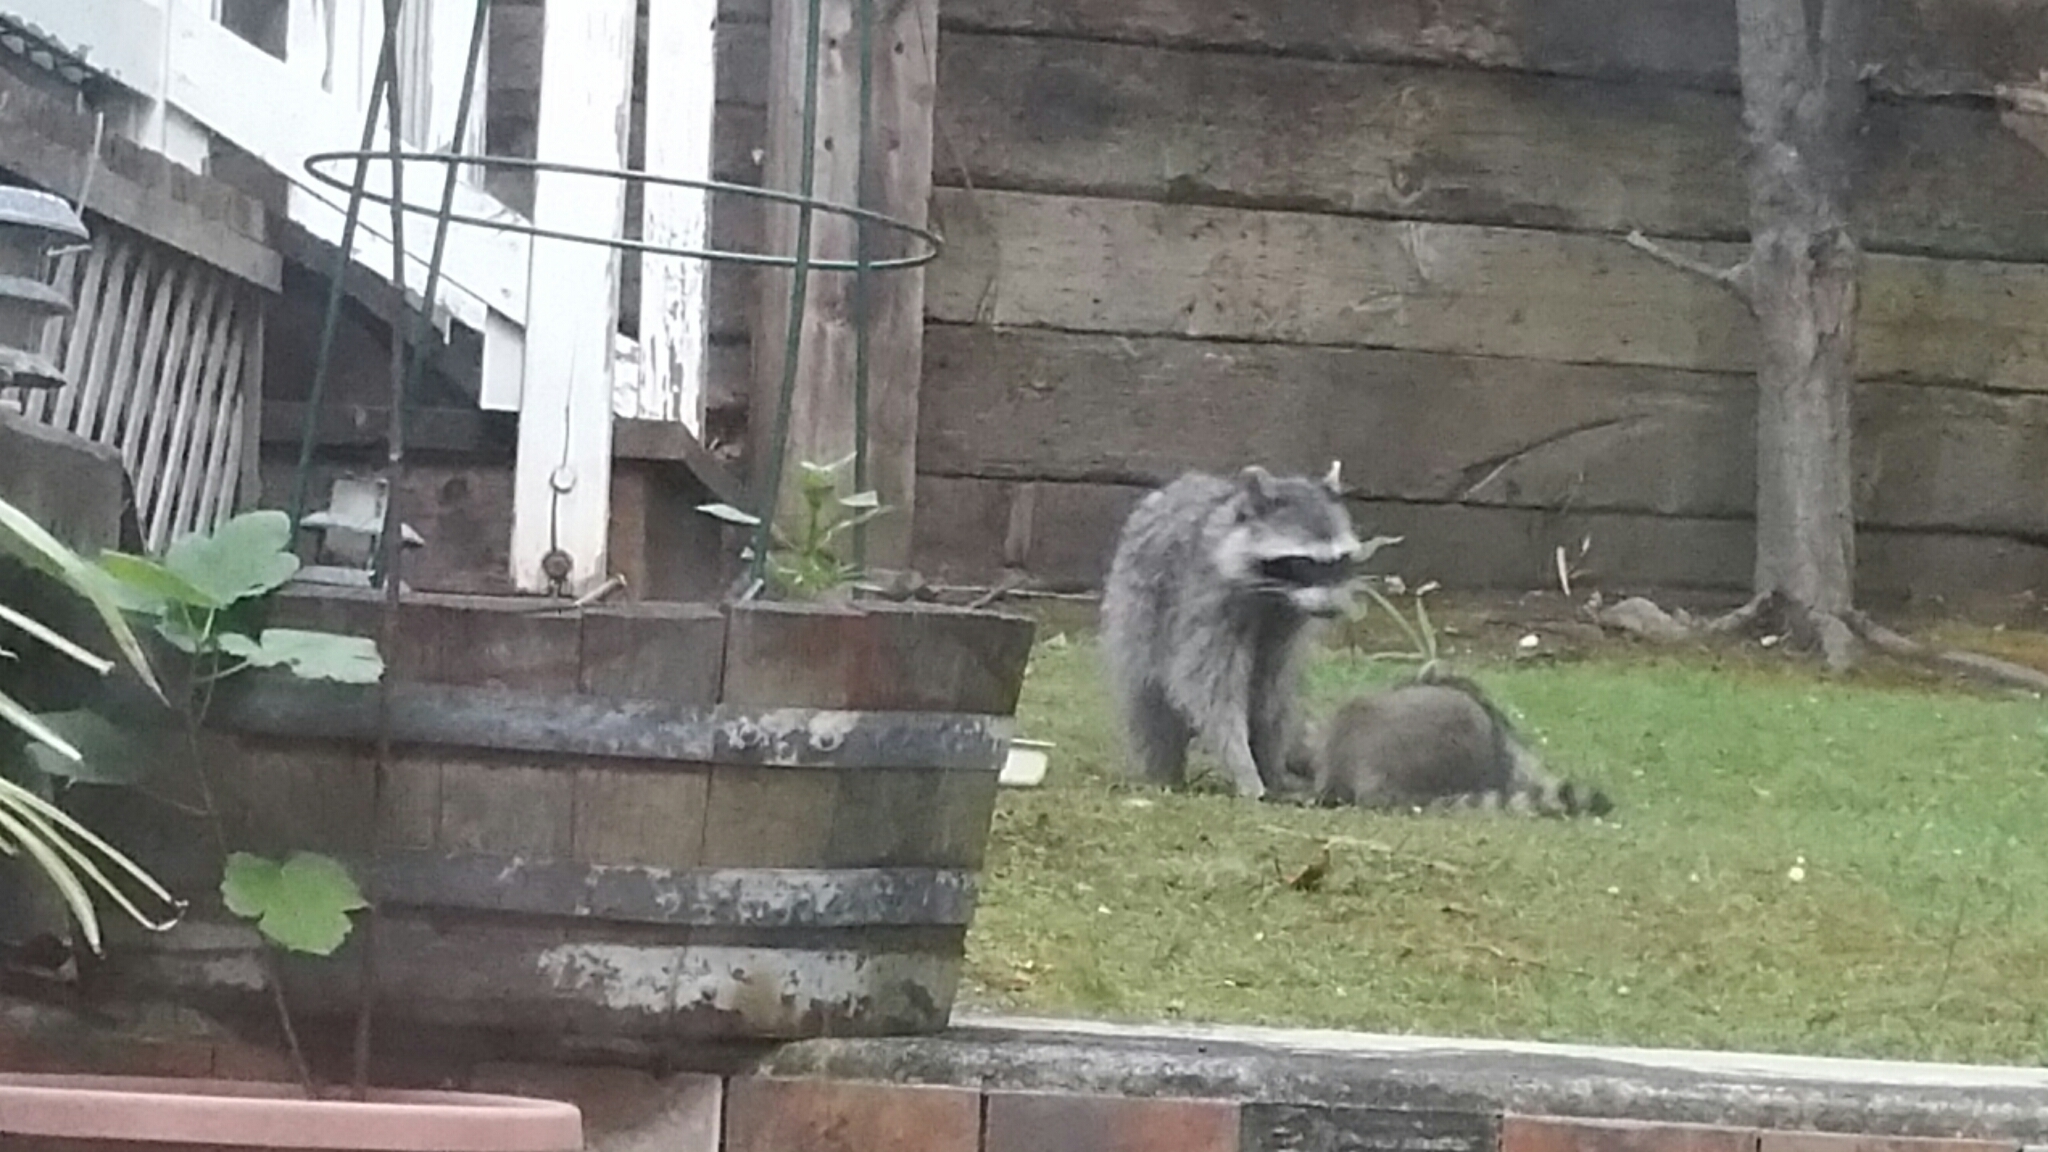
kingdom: Animalia
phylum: Chordata
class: Mammalia
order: Carnivora
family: Procyonidae
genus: Procyon
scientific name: Procyon lotor
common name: Raccoon
